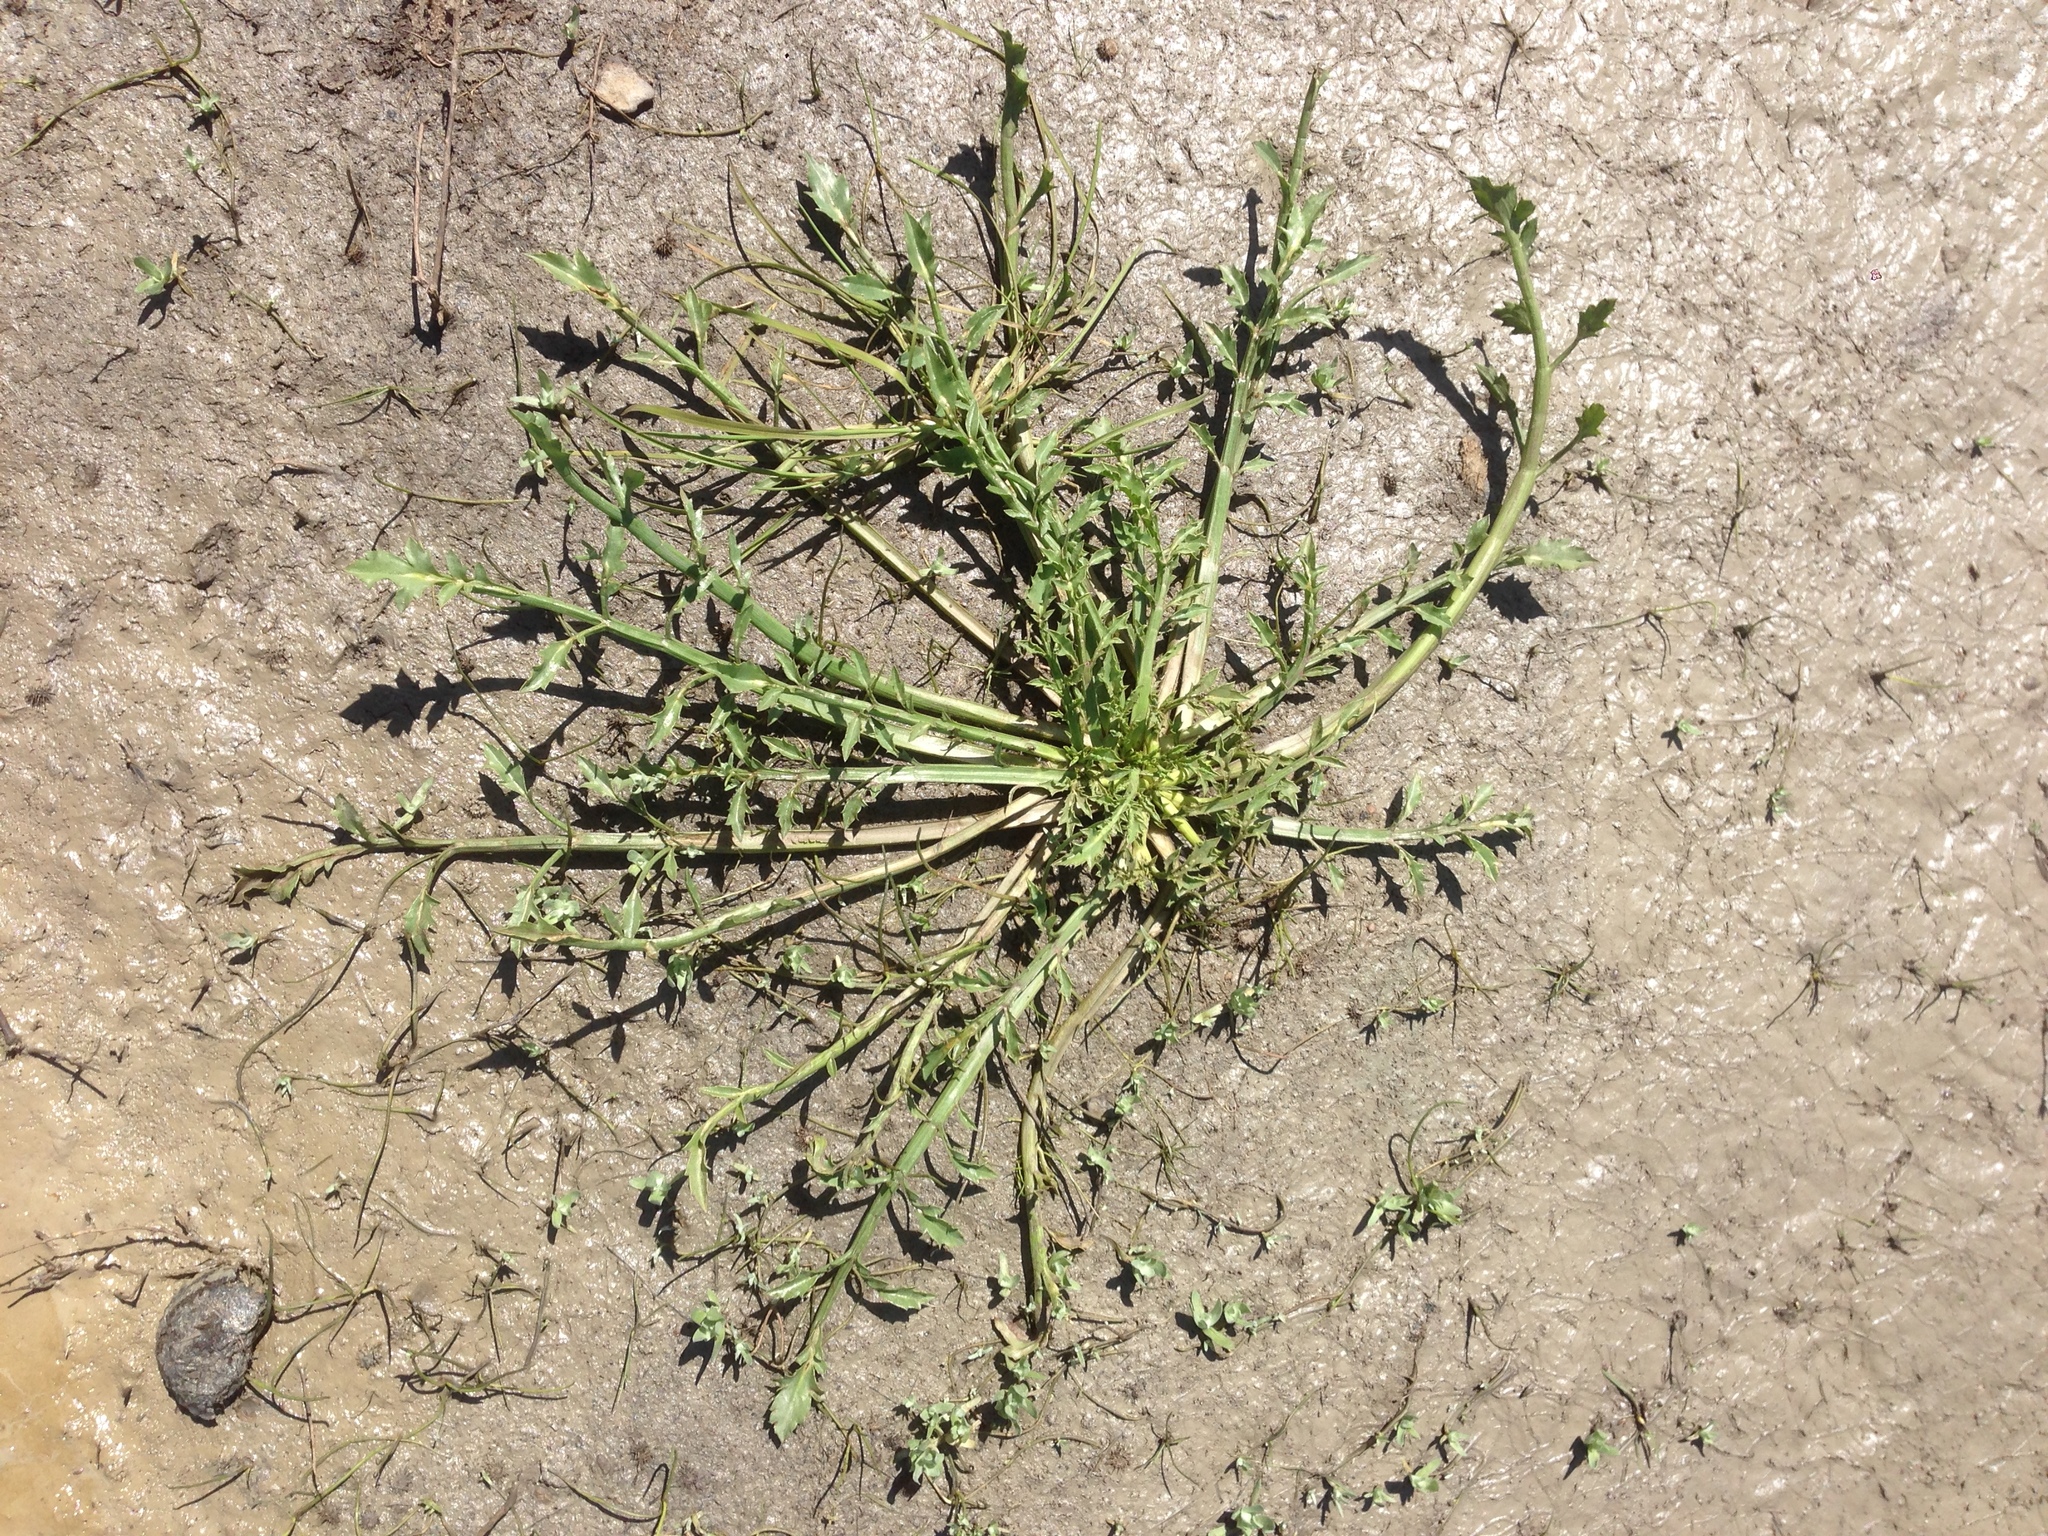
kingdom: Plantae
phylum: Tracheophyta
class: Magnoliopsida
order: Apiales
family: Apiaceae
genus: Eryngium
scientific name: Eryngium aristulatum
